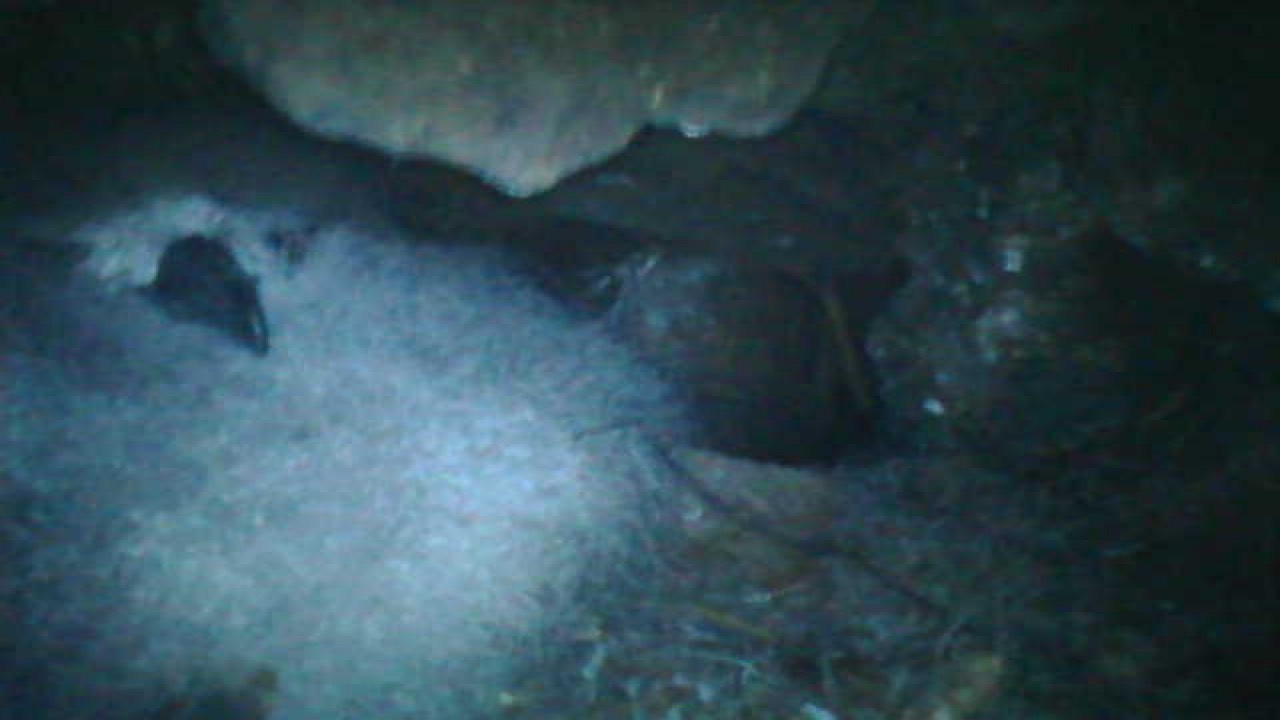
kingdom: Animalia
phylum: Chordata
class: Aves
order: Procellariiformes
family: Procellariidae
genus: Pterodroma
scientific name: Pterodroma nigripennis
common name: Black-winged petrel
